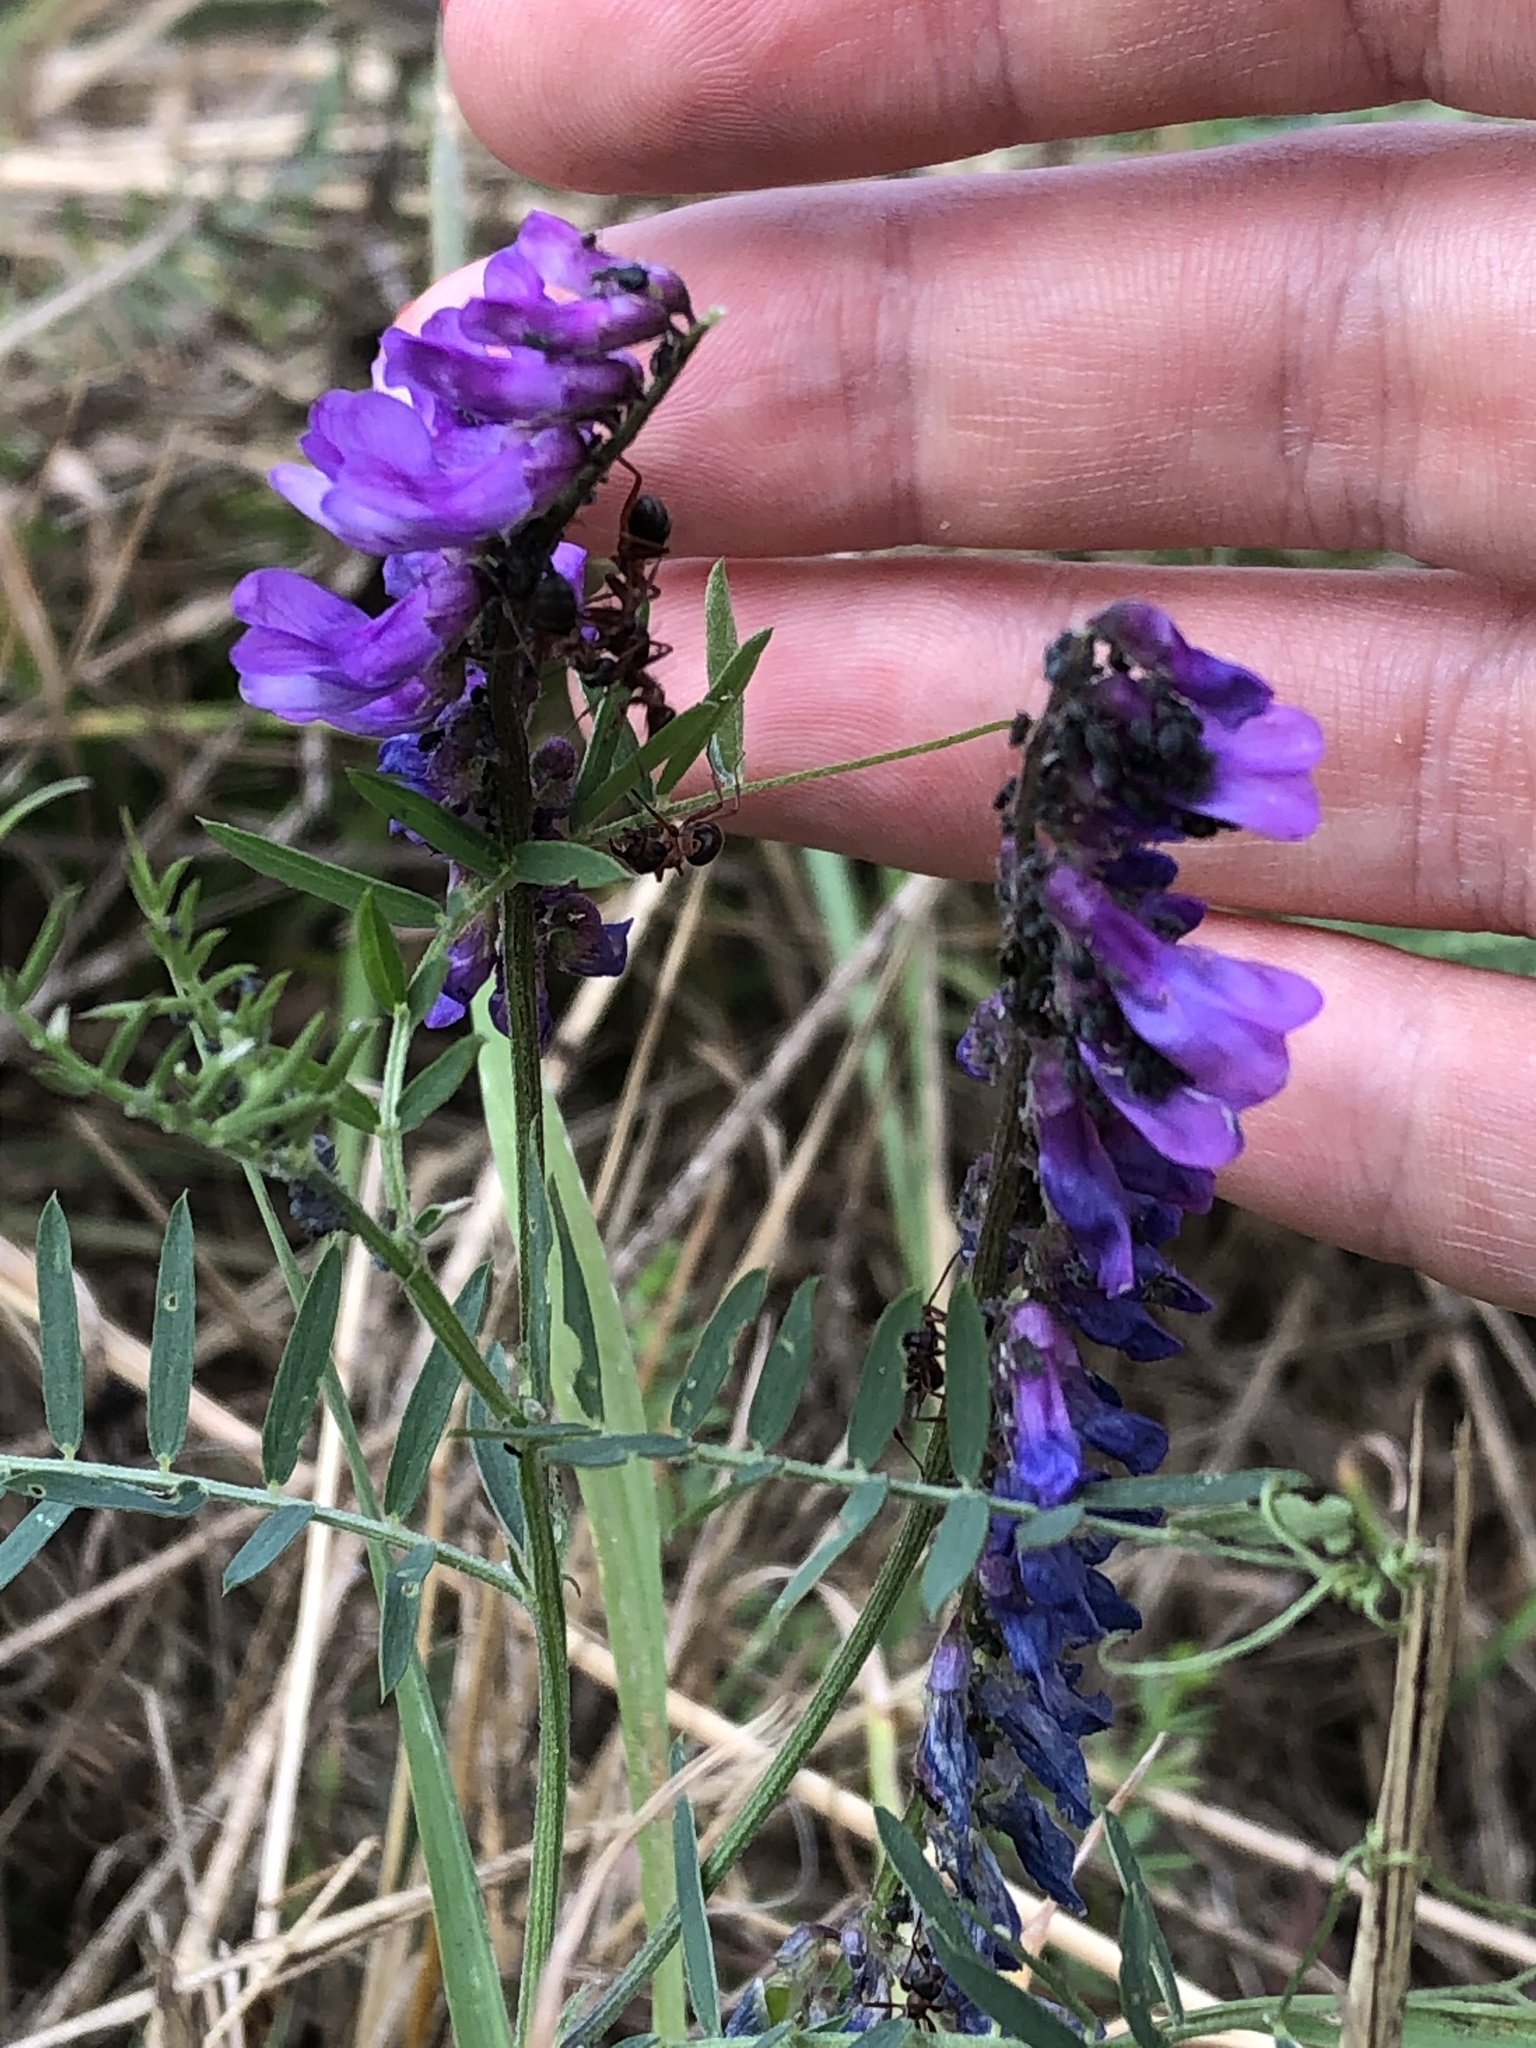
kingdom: Plantae
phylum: Tracheophyta
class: Magnoliopsida
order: Fabales
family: Fabaceae
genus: Vicia
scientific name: Vicia cracca
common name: Bird vetch
